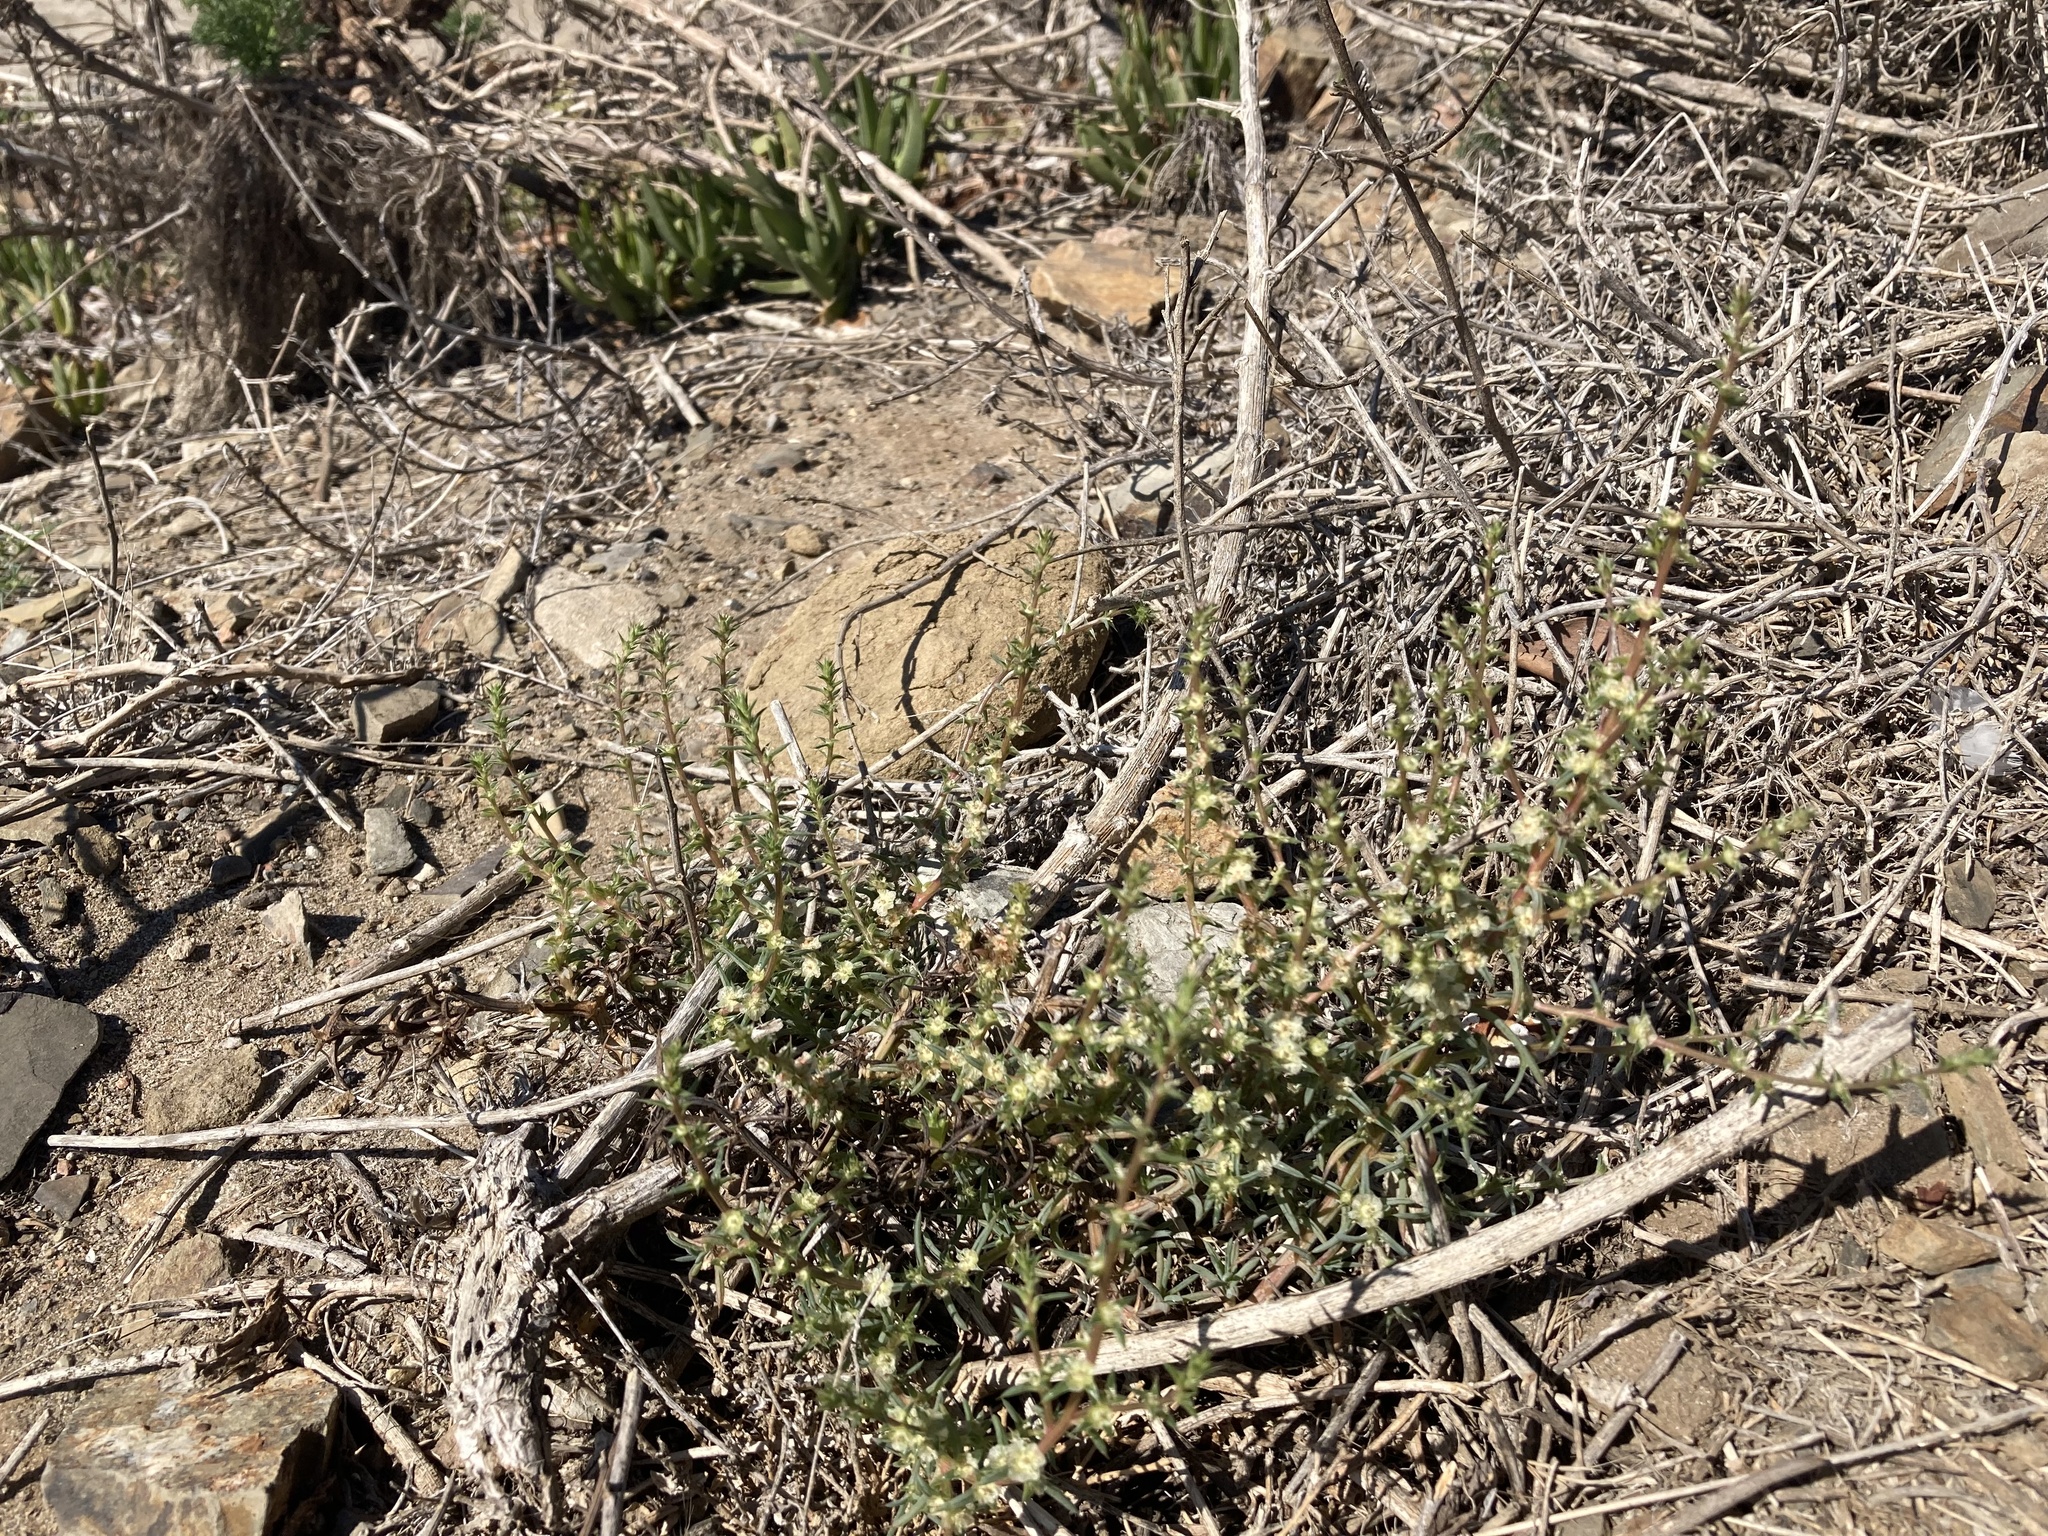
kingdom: Plantae
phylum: Tracheophyta
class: Magnoliopsida
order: Caryophyllales
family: Amaranthaceae
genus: Salsola
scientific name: Salsola australis
